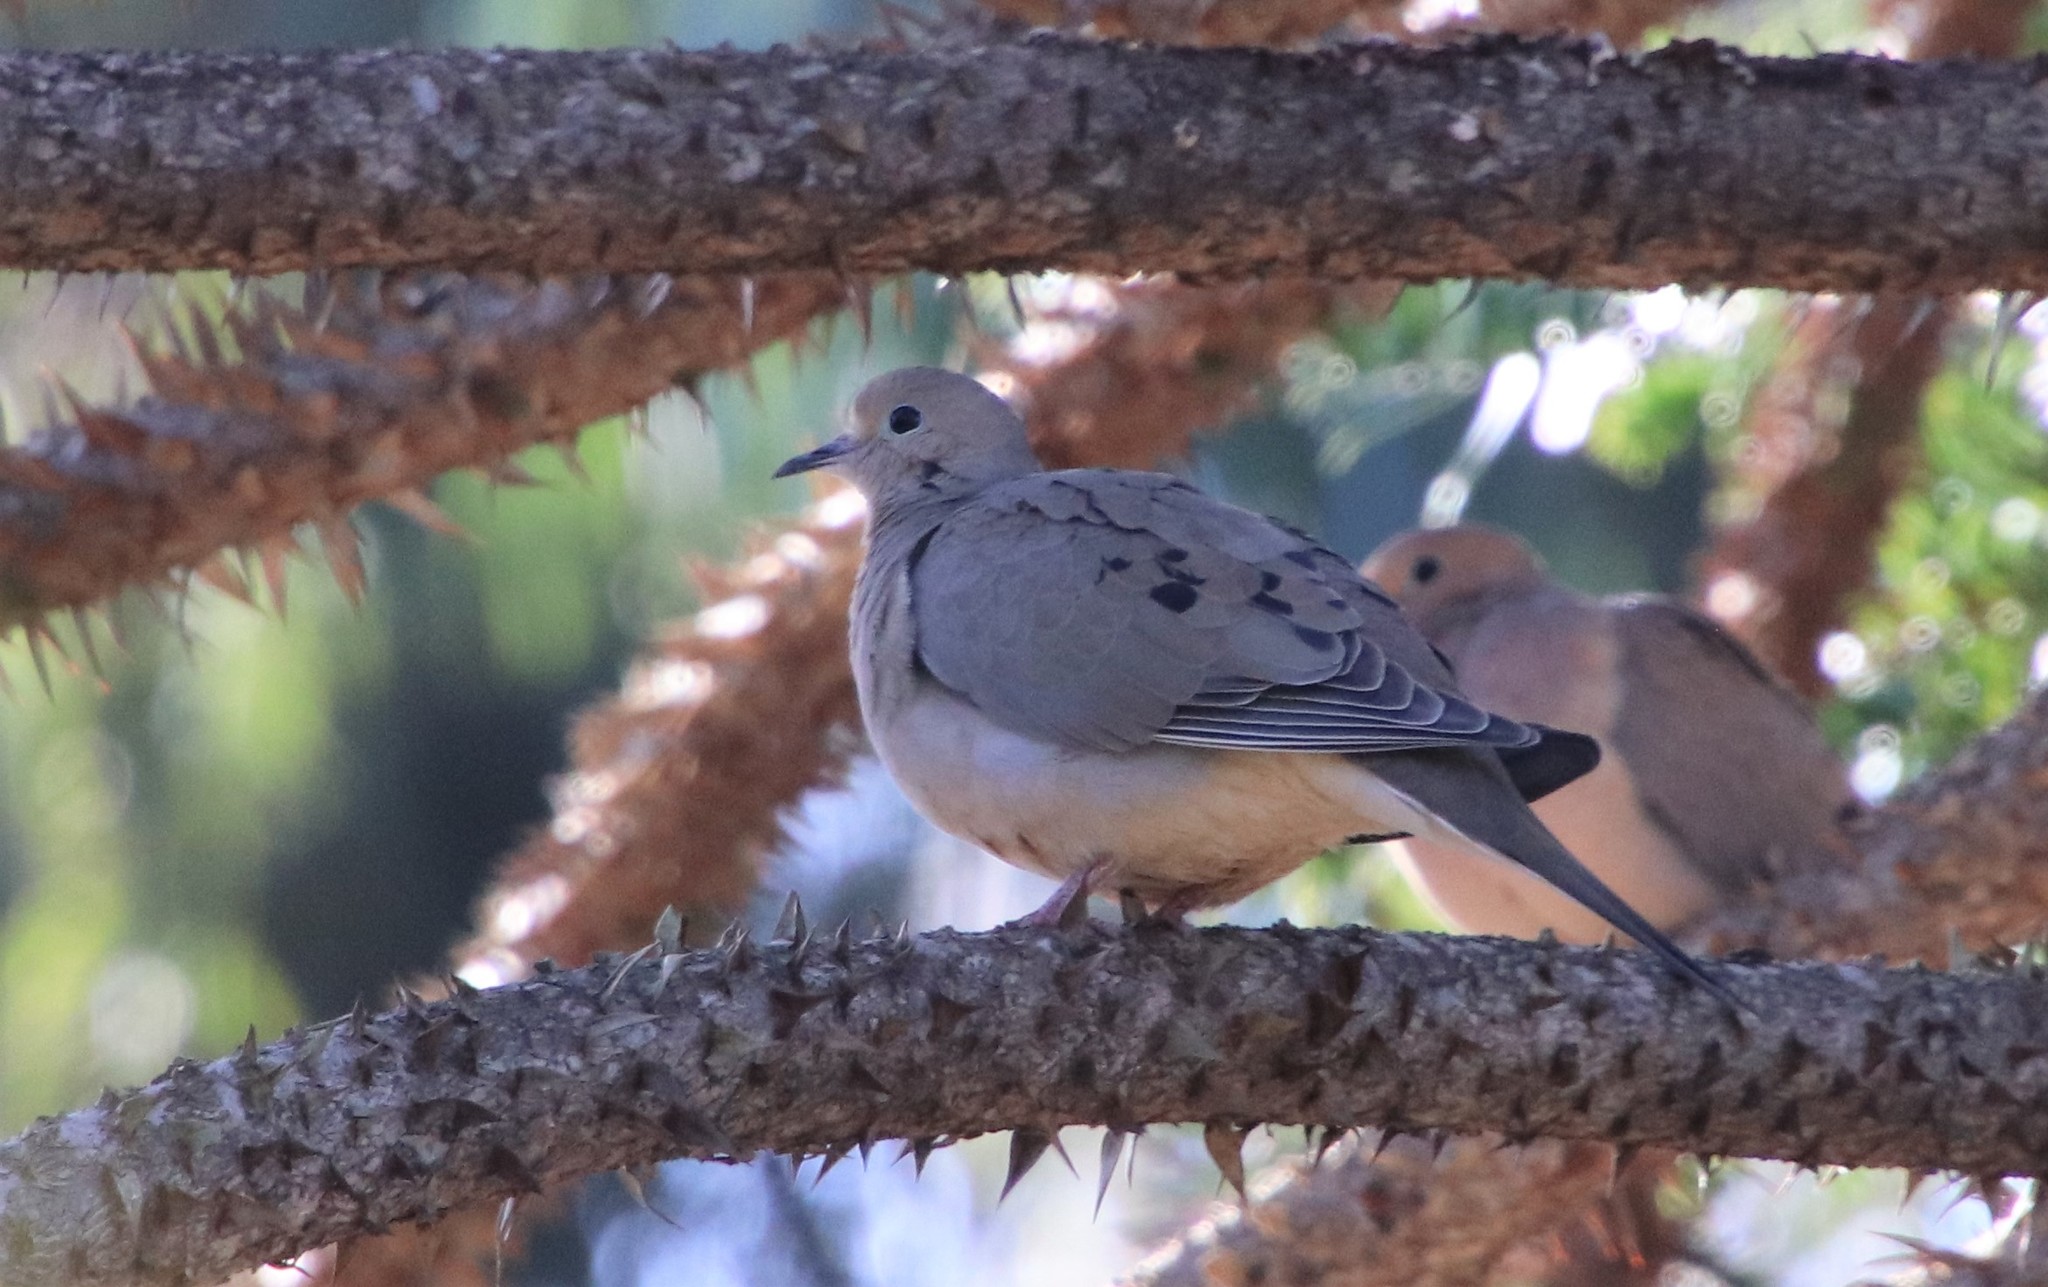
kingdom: Animalia
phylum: Chordata
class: Aves
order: Columbiformes
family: Columbidae
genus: Zenaida
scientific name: Zenaida macroura
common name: Mourning dove
